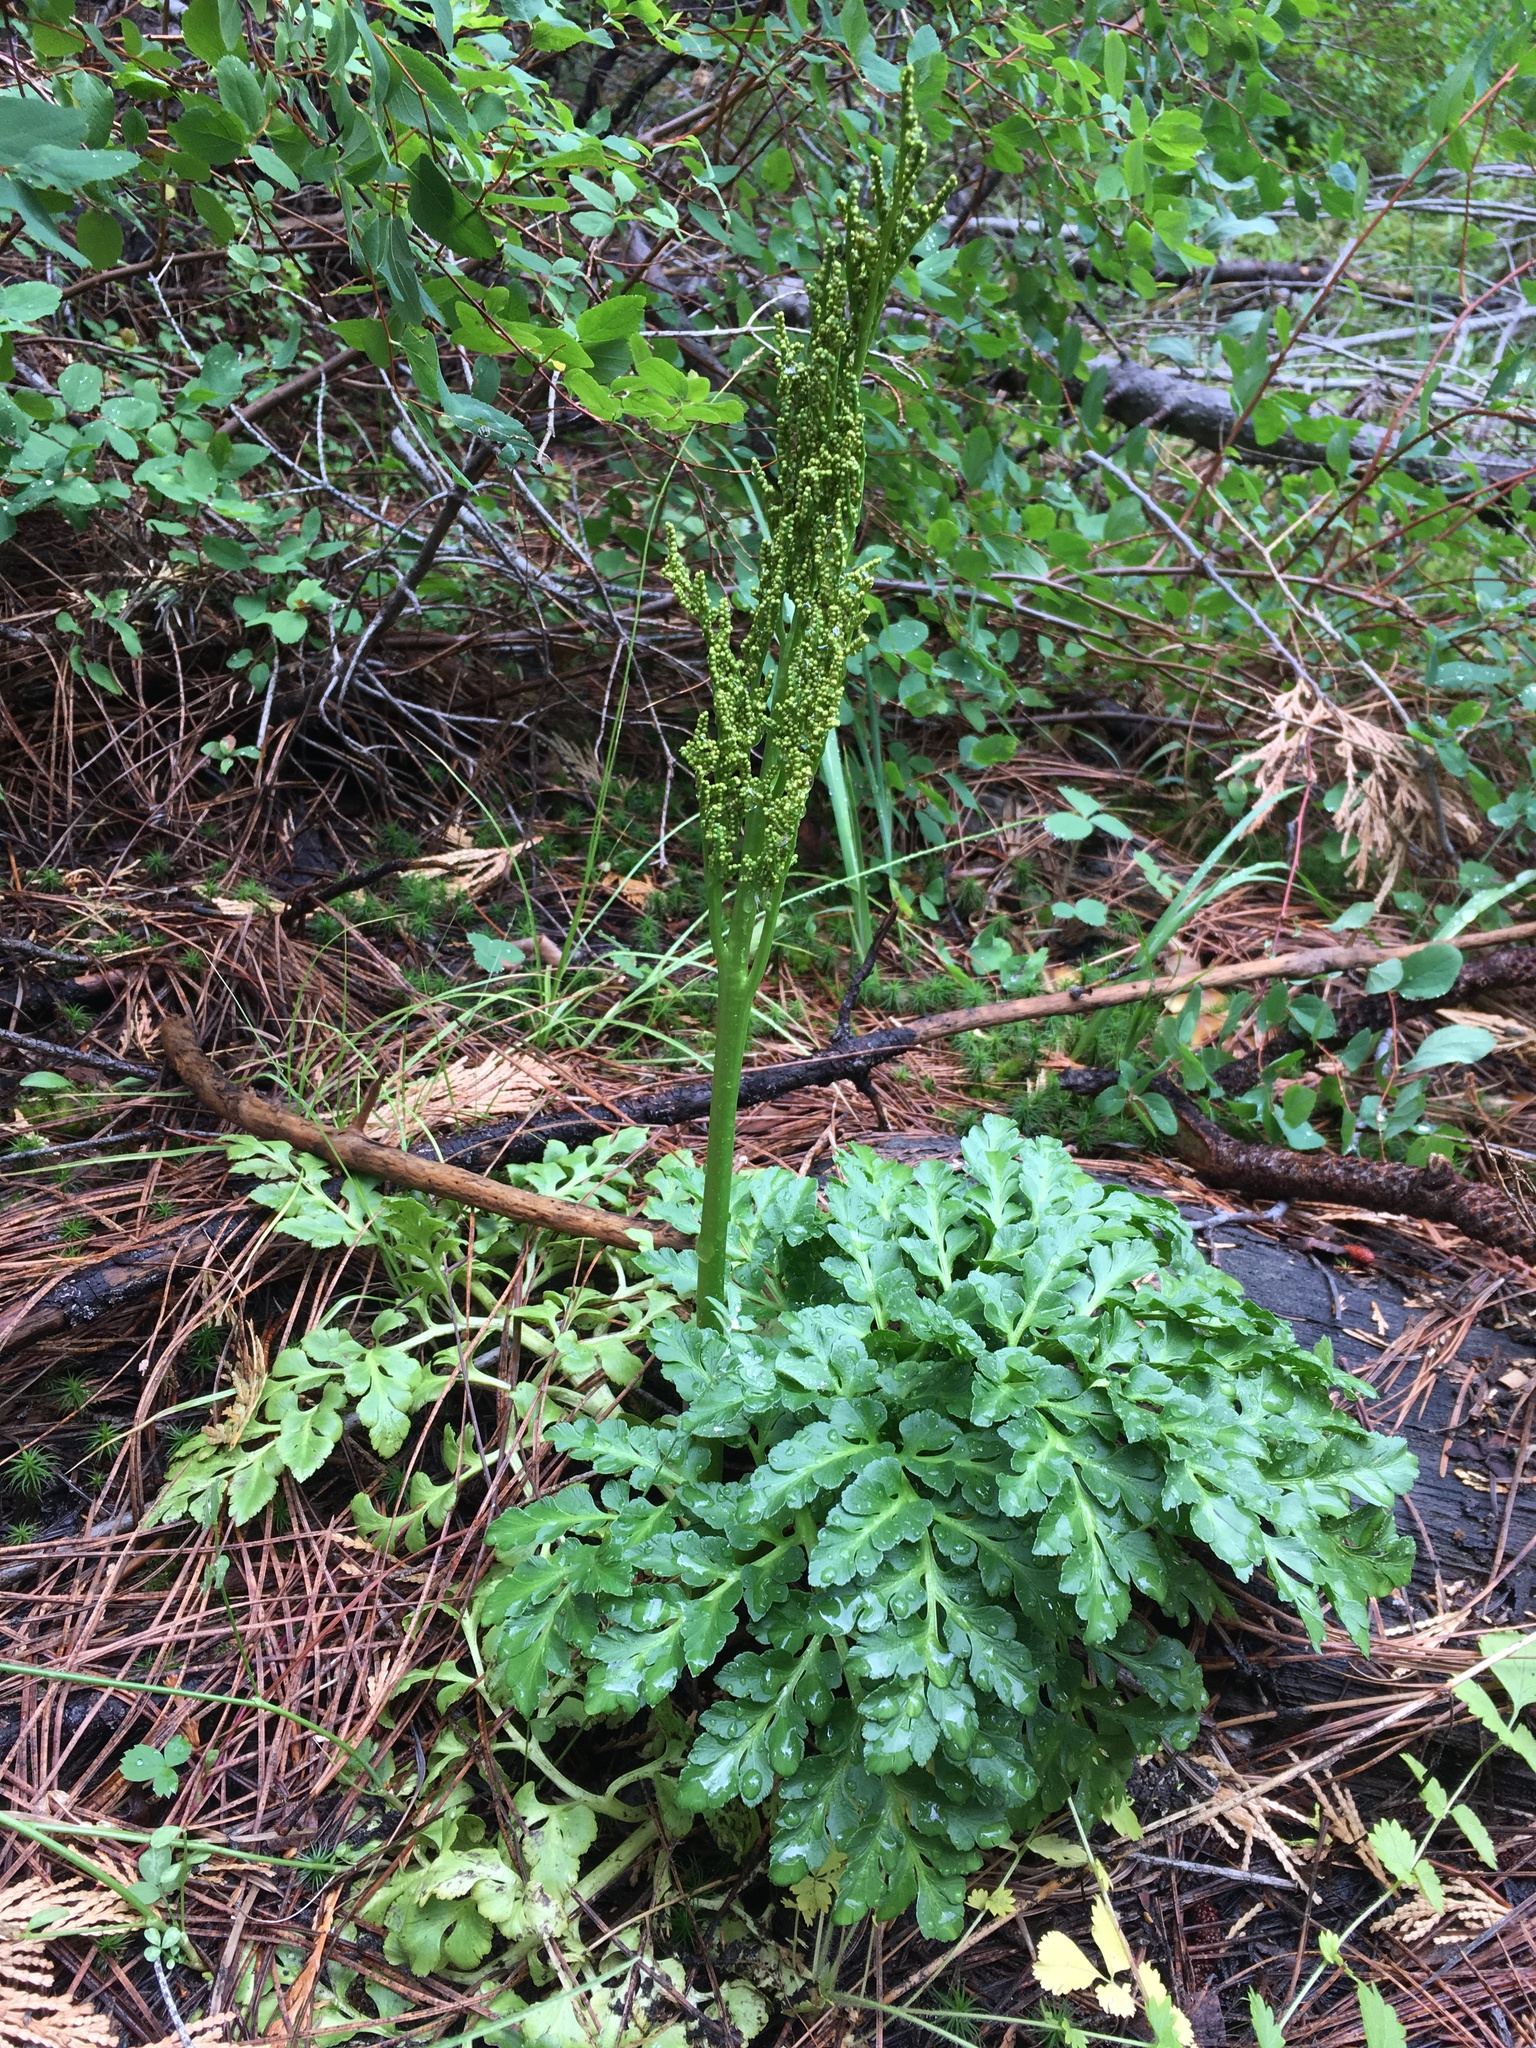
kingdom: Plantae
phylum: Tracheophyta
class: Polypodiopsida
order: Ophioglossales
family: Ophioglossaceae
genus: Sceptridium
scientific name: Sceptridium multifidum
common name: Leathery grape fern
